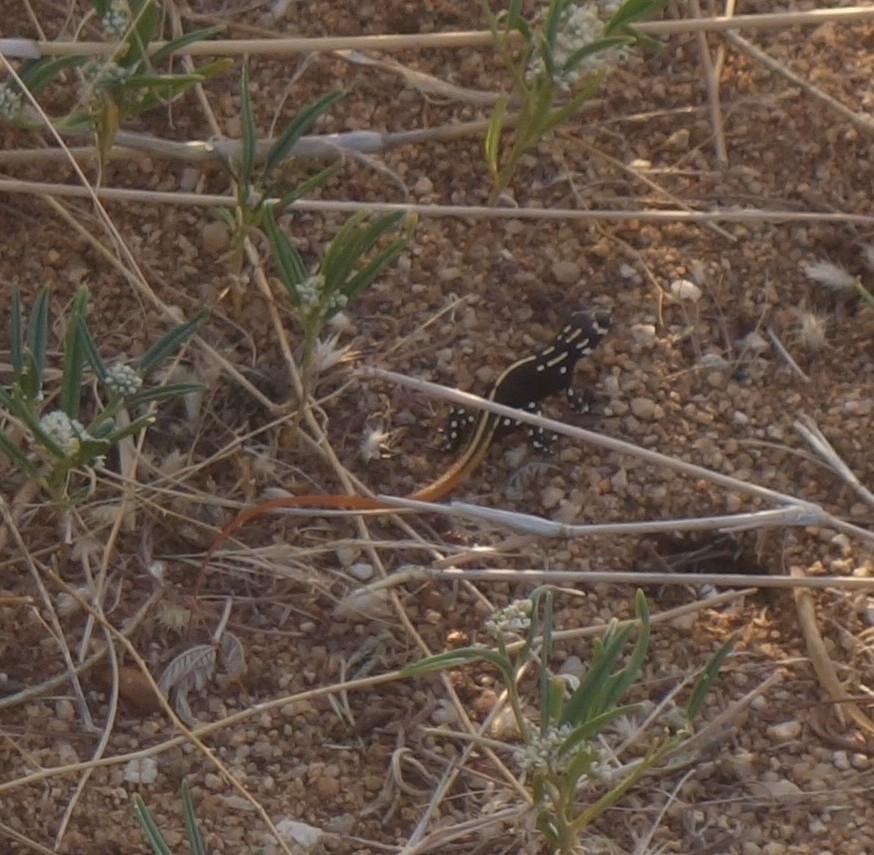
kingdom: Animalia
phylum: Chordata
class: Squamata
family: Lacertidae
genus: Heliobolus
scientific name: Heliobolus lugubris
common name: Bushveld lizard
